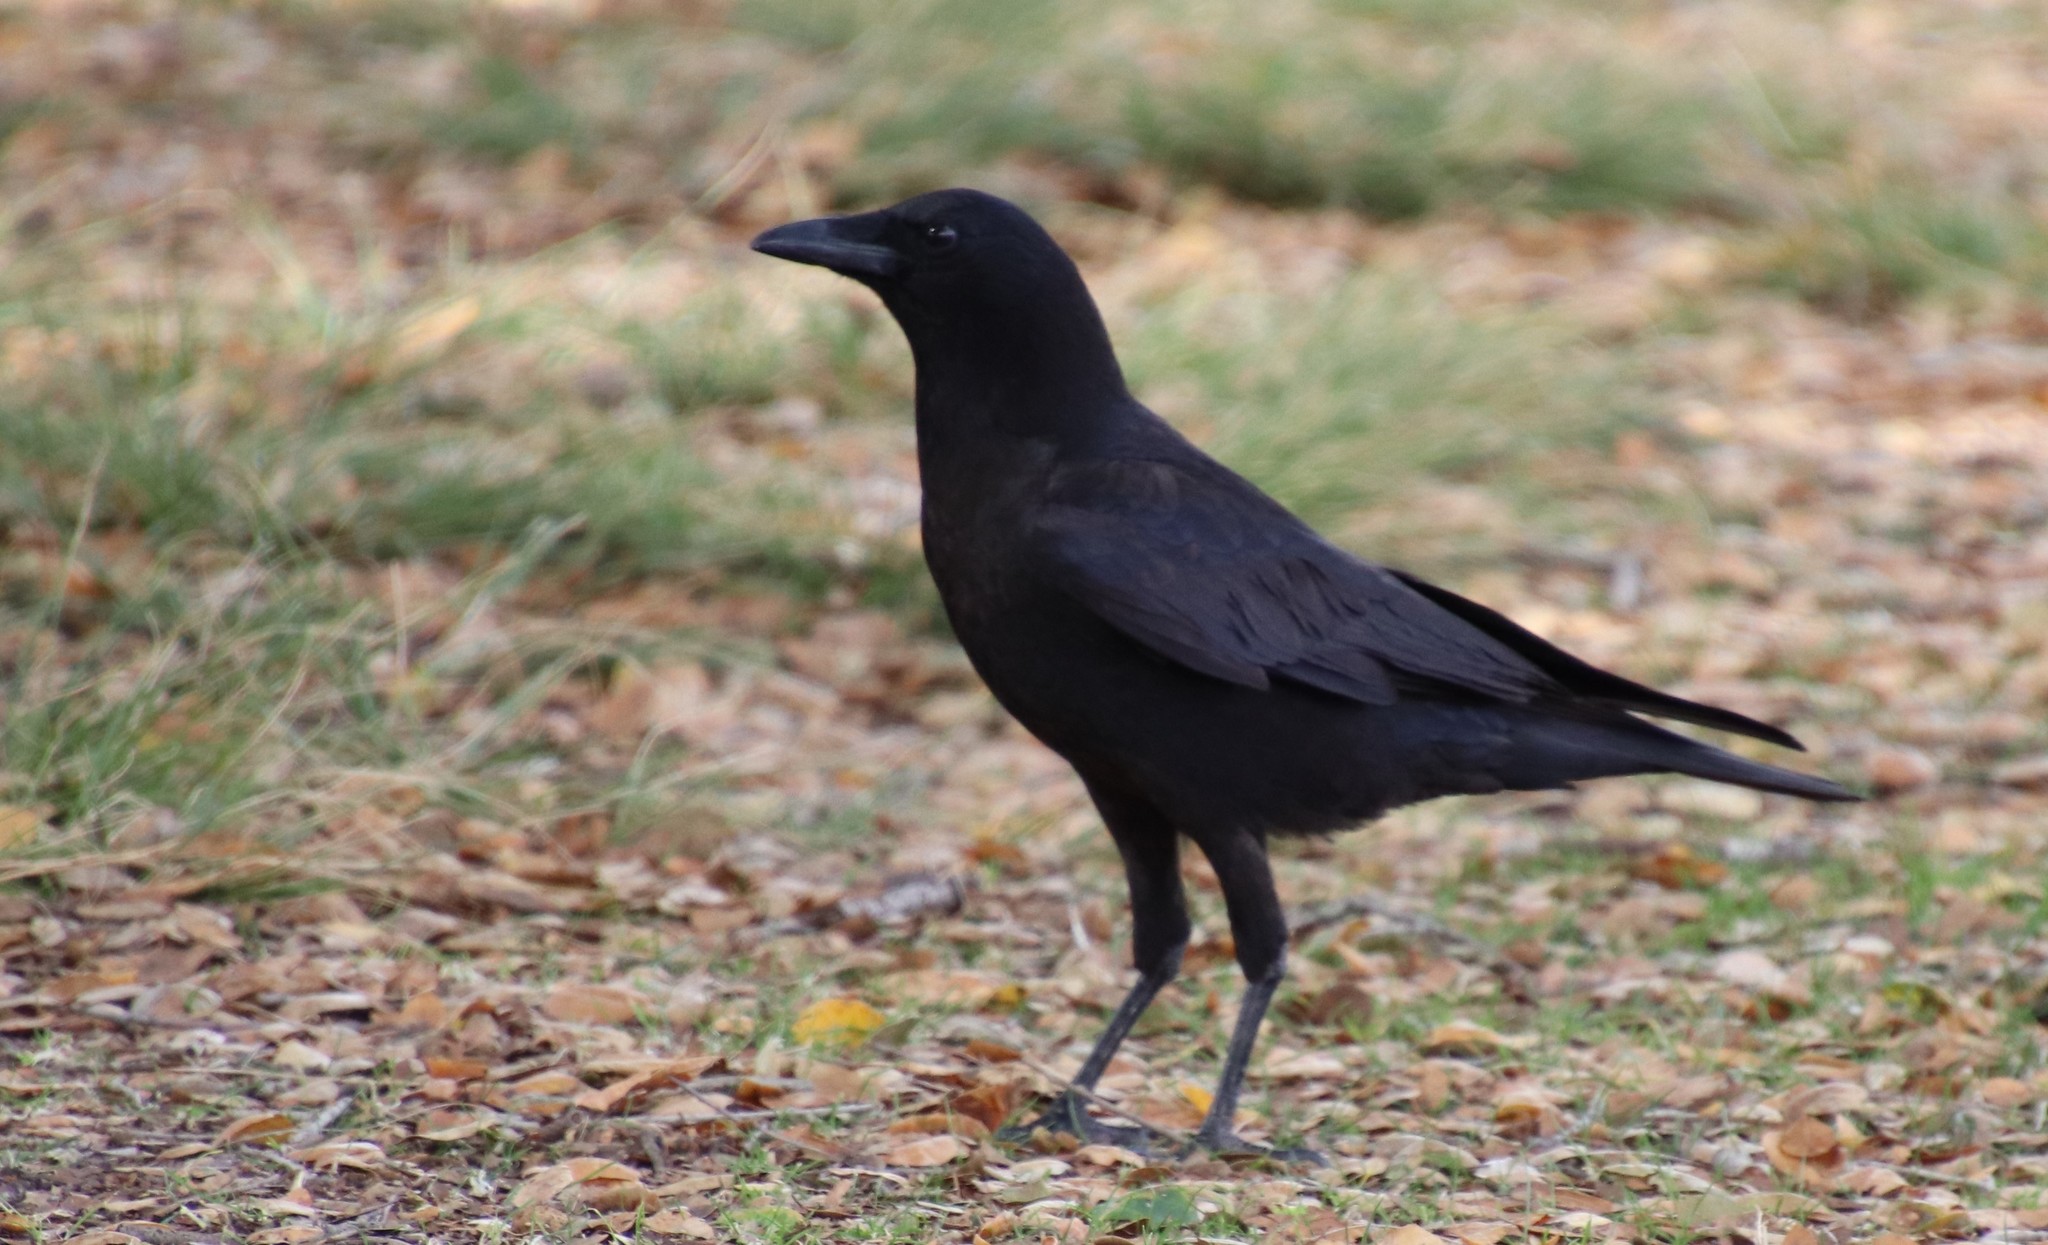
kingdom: Animalia
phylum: Chordata
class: Aves
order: Passeriformes
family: Corvidae
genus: Corvus
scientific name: Corvus brachyrhynchos
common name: American crow
